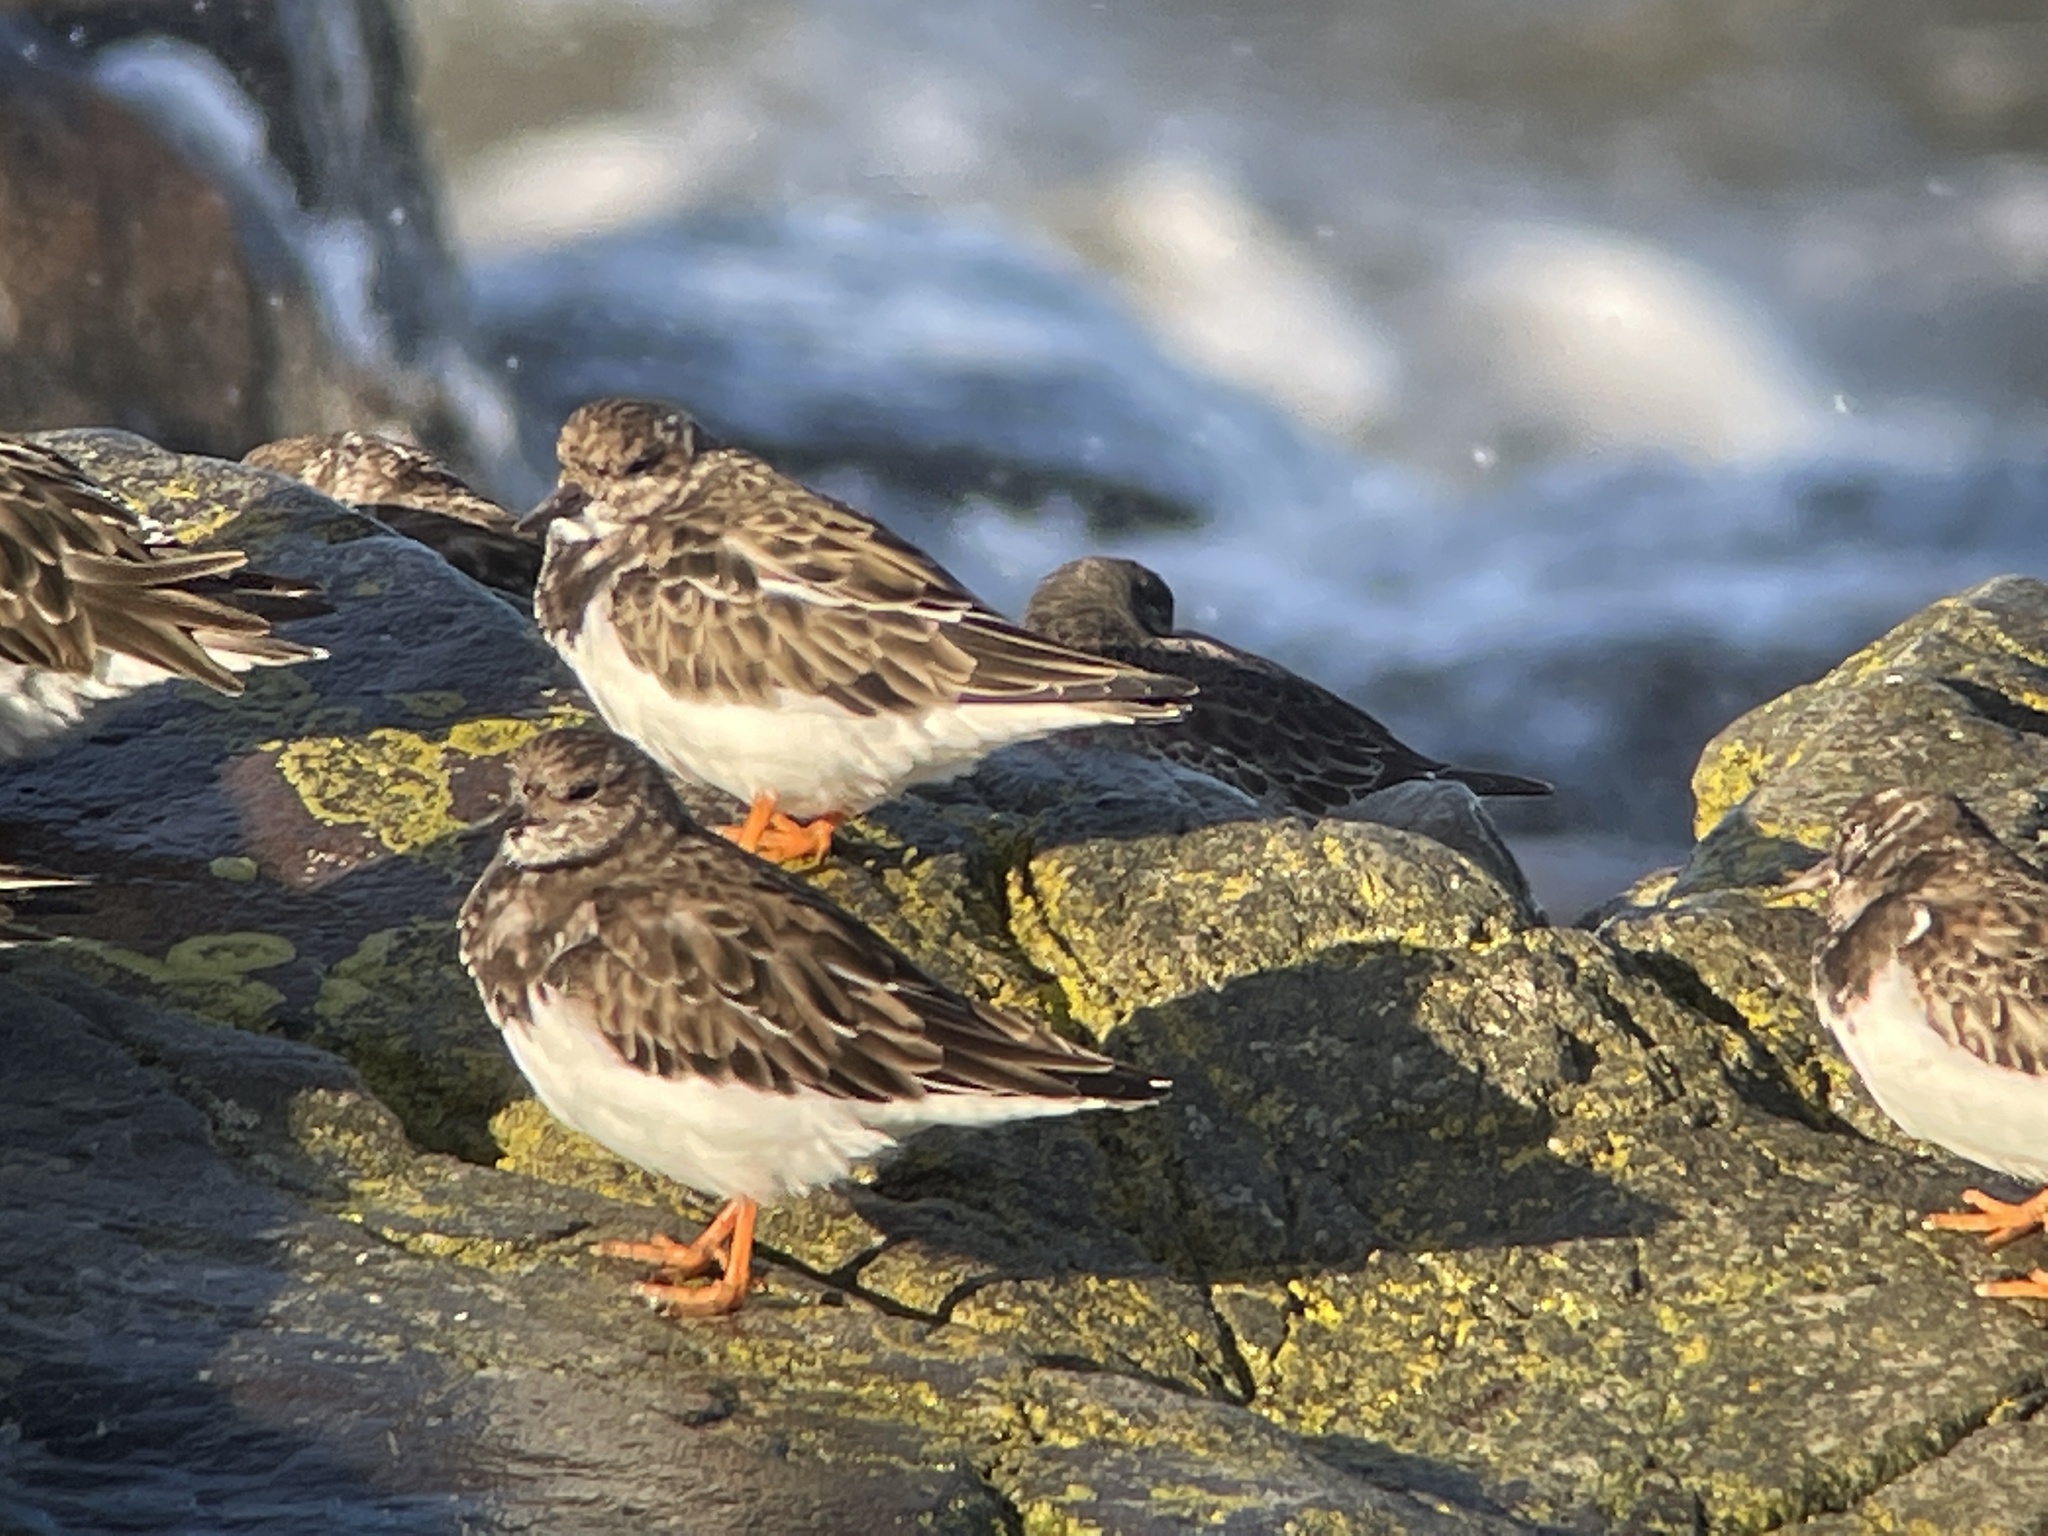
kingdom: Animalia
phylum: Chordata
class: Aves
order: Charadriiformes
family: Scolopacidae
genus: Arenaria
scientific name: Arenaria interpres
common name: Ruddy turnstone
